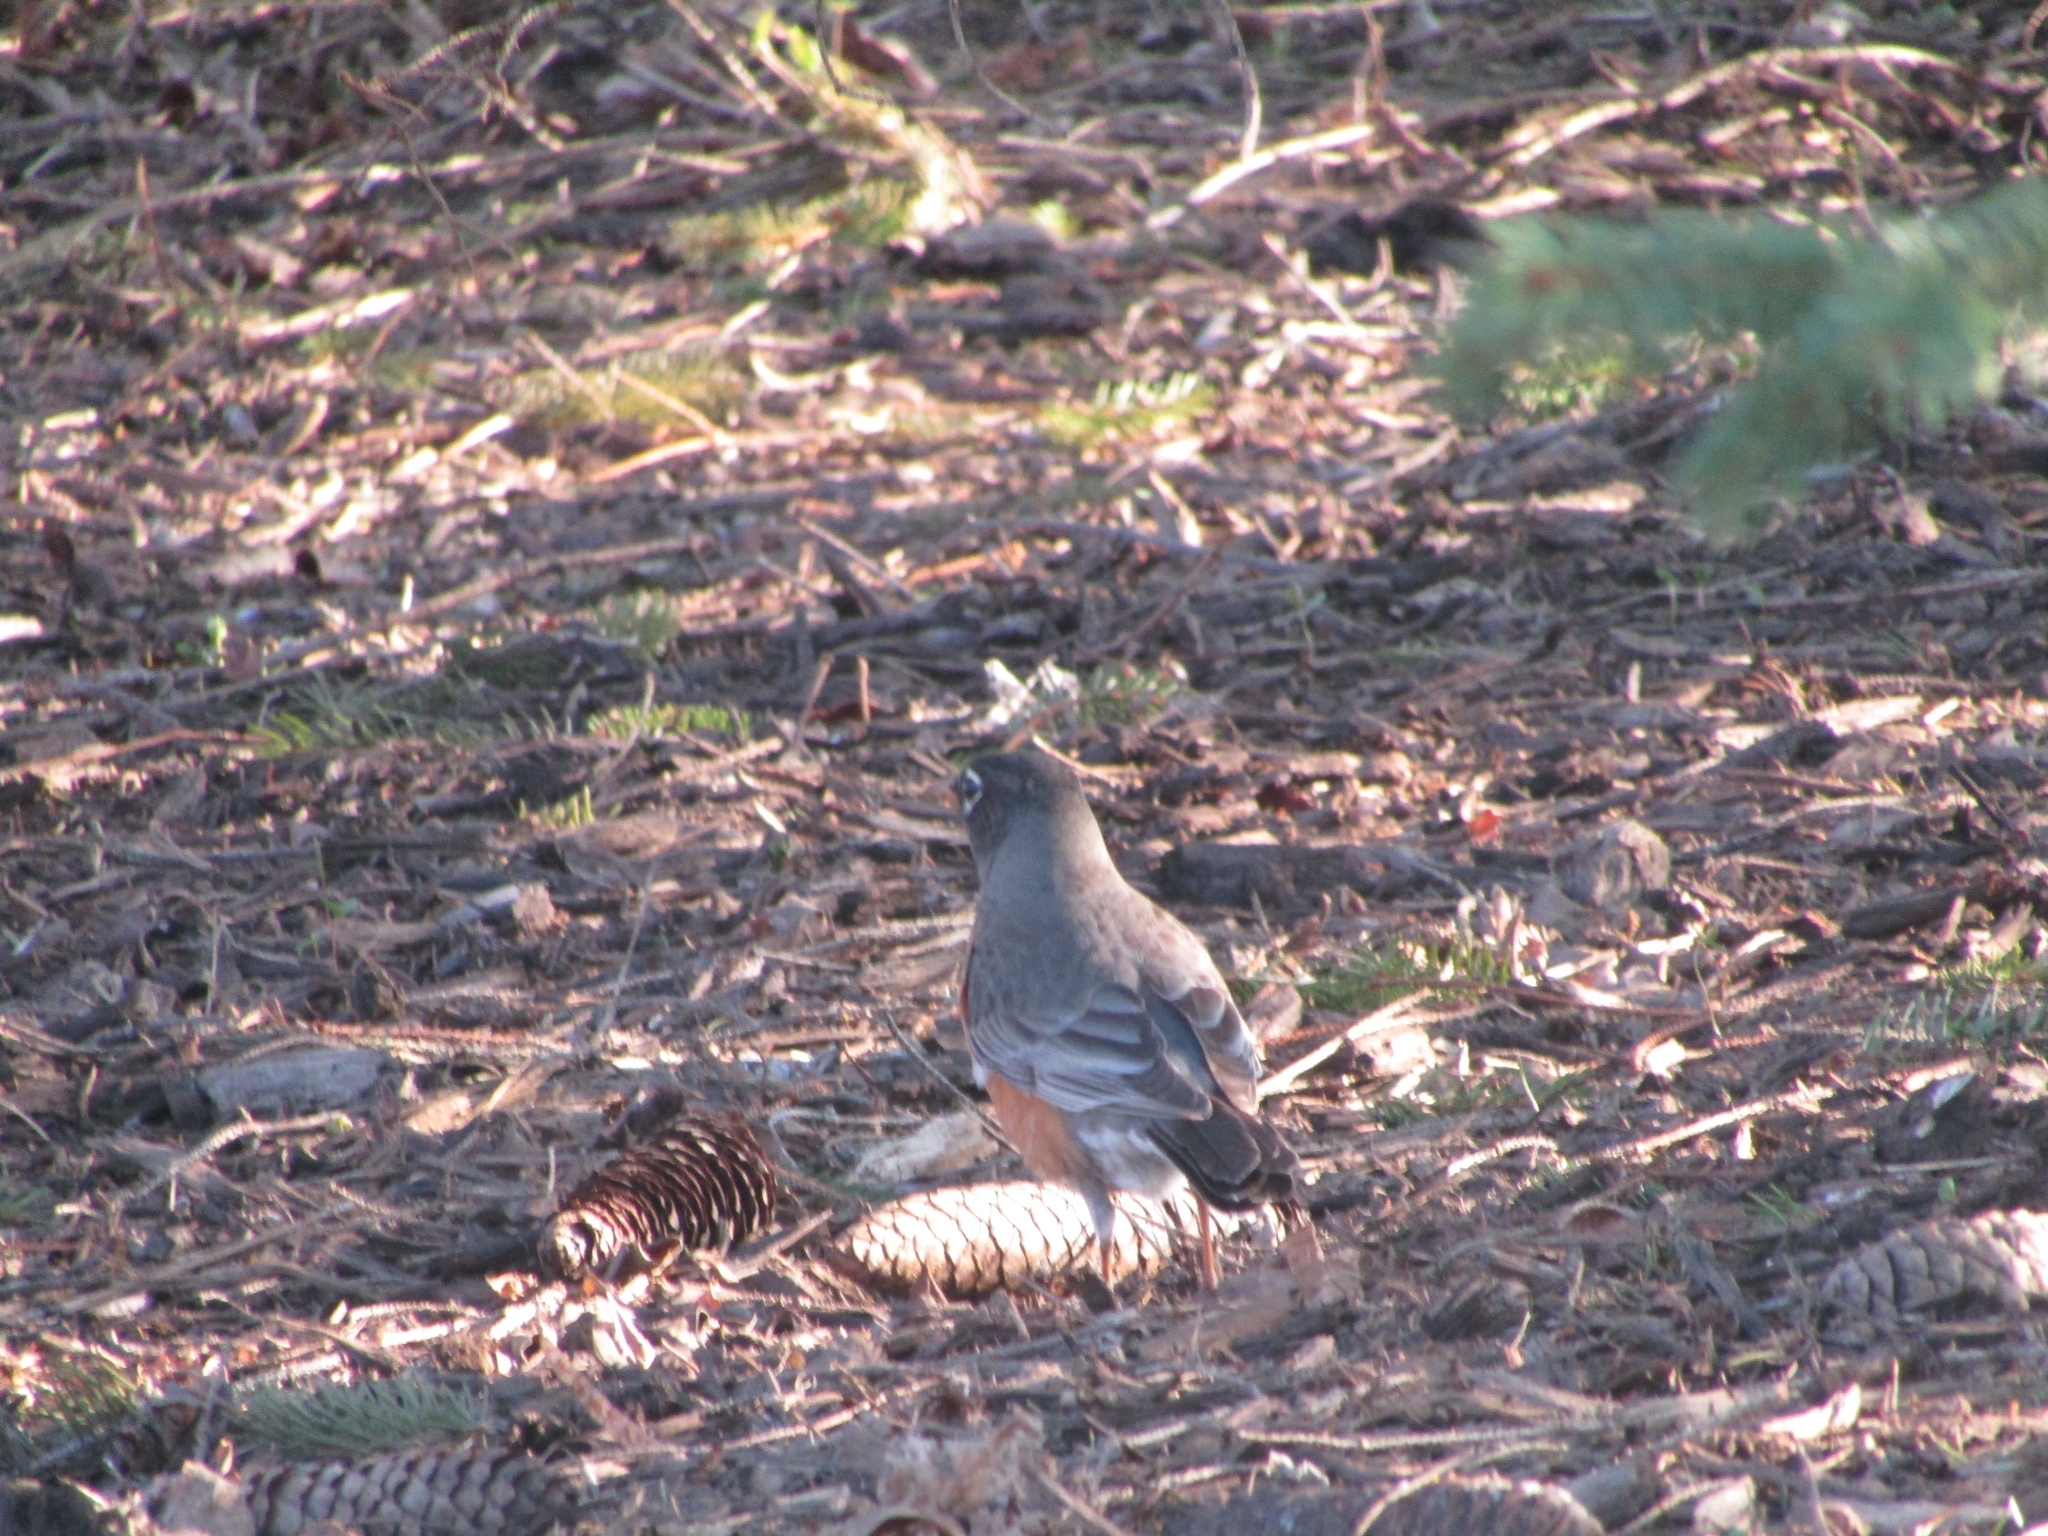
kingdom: Animalia
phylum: Chordata
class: Aves
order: Passeriformes
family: Turdidae
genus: Turdus
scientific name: Turdus migratorius
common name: American robin
